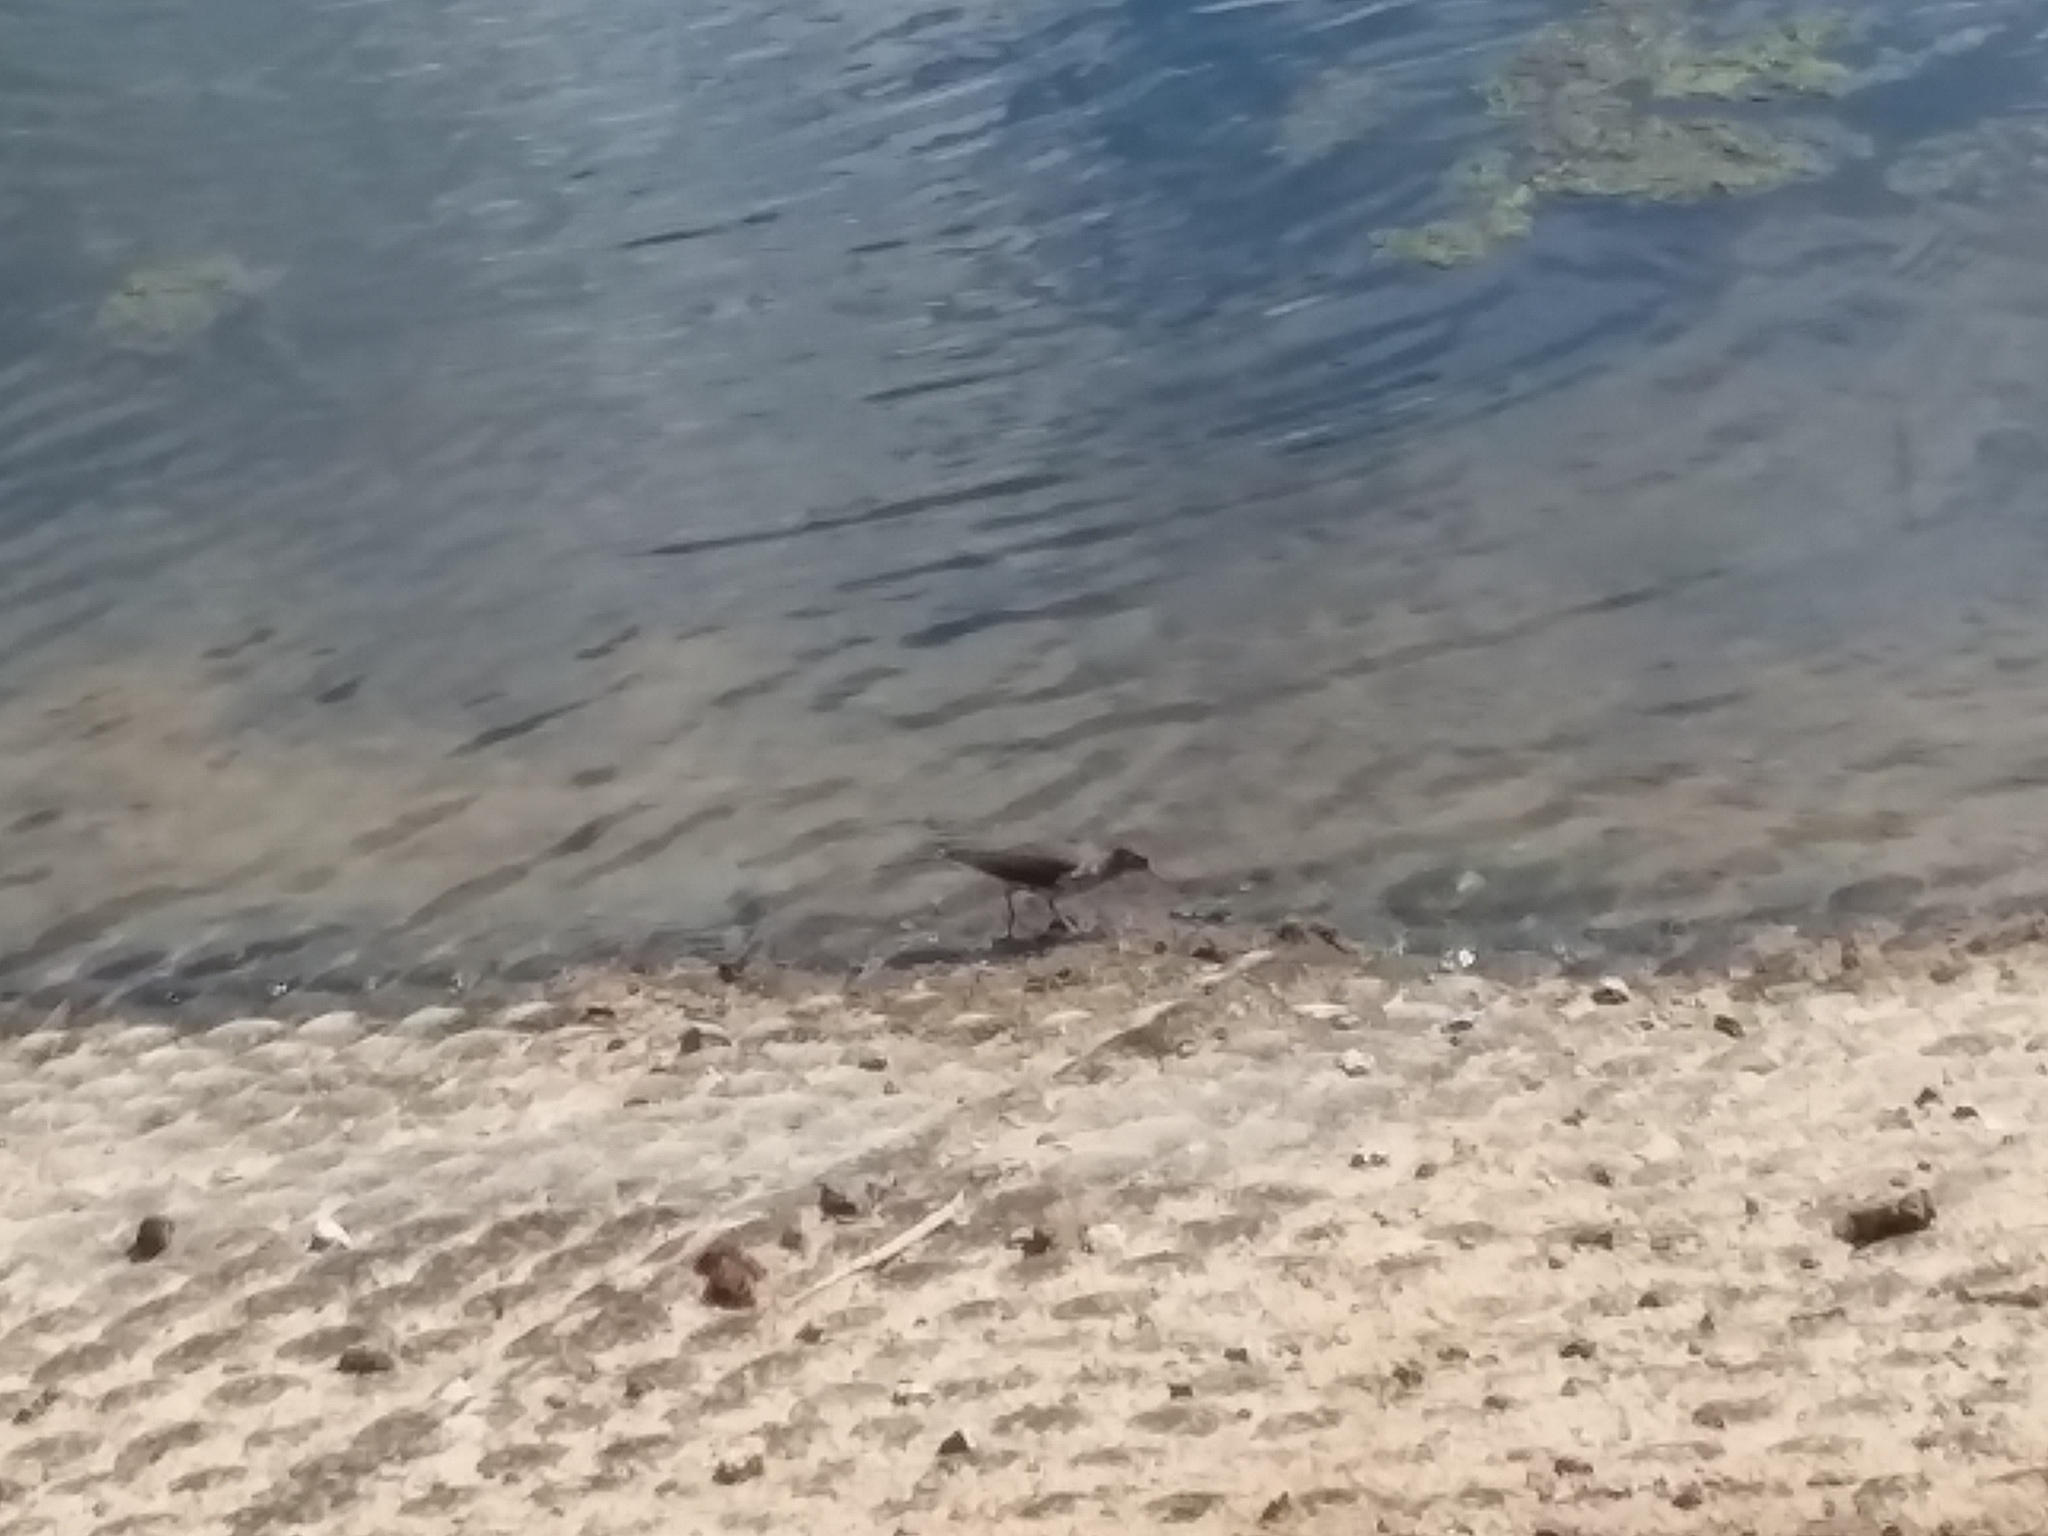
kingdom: Animalia
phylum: Chordata
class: Aves
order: Charadriiformes
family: Scolopacidae
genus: Actitis
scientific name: Actitis macularius
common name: Spotted sandpiper
